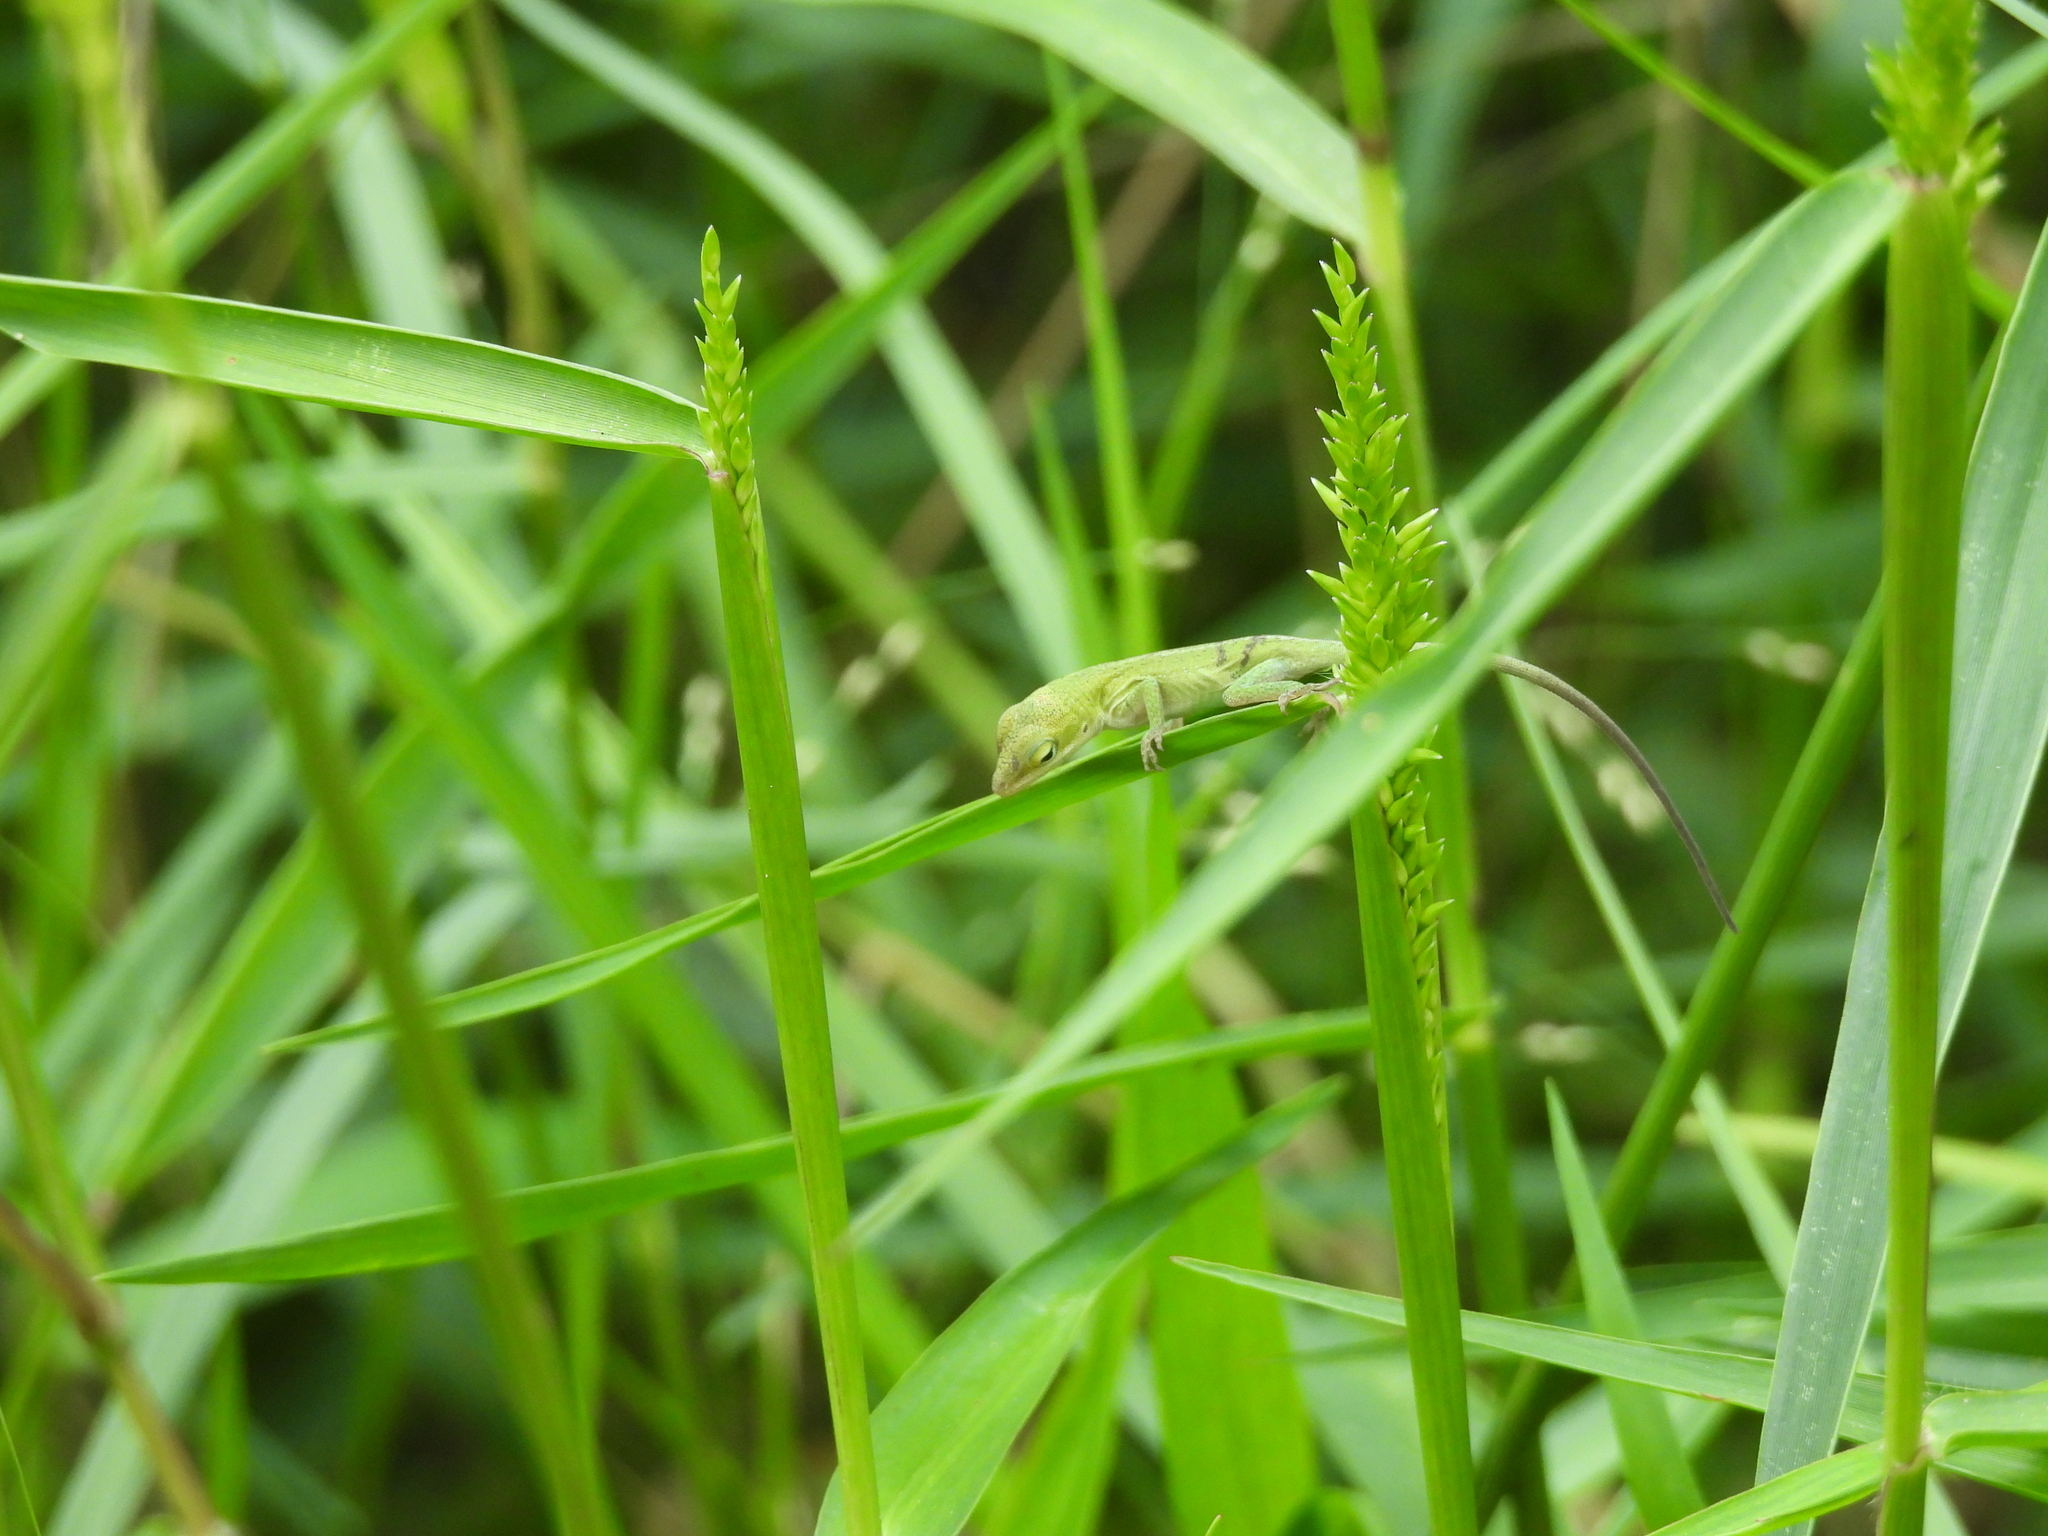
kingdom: Animalia
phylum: Chordata
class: Squamata
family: Dactyloidae
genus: Anolis
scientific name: Anolis carolinensis
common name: Green anole
